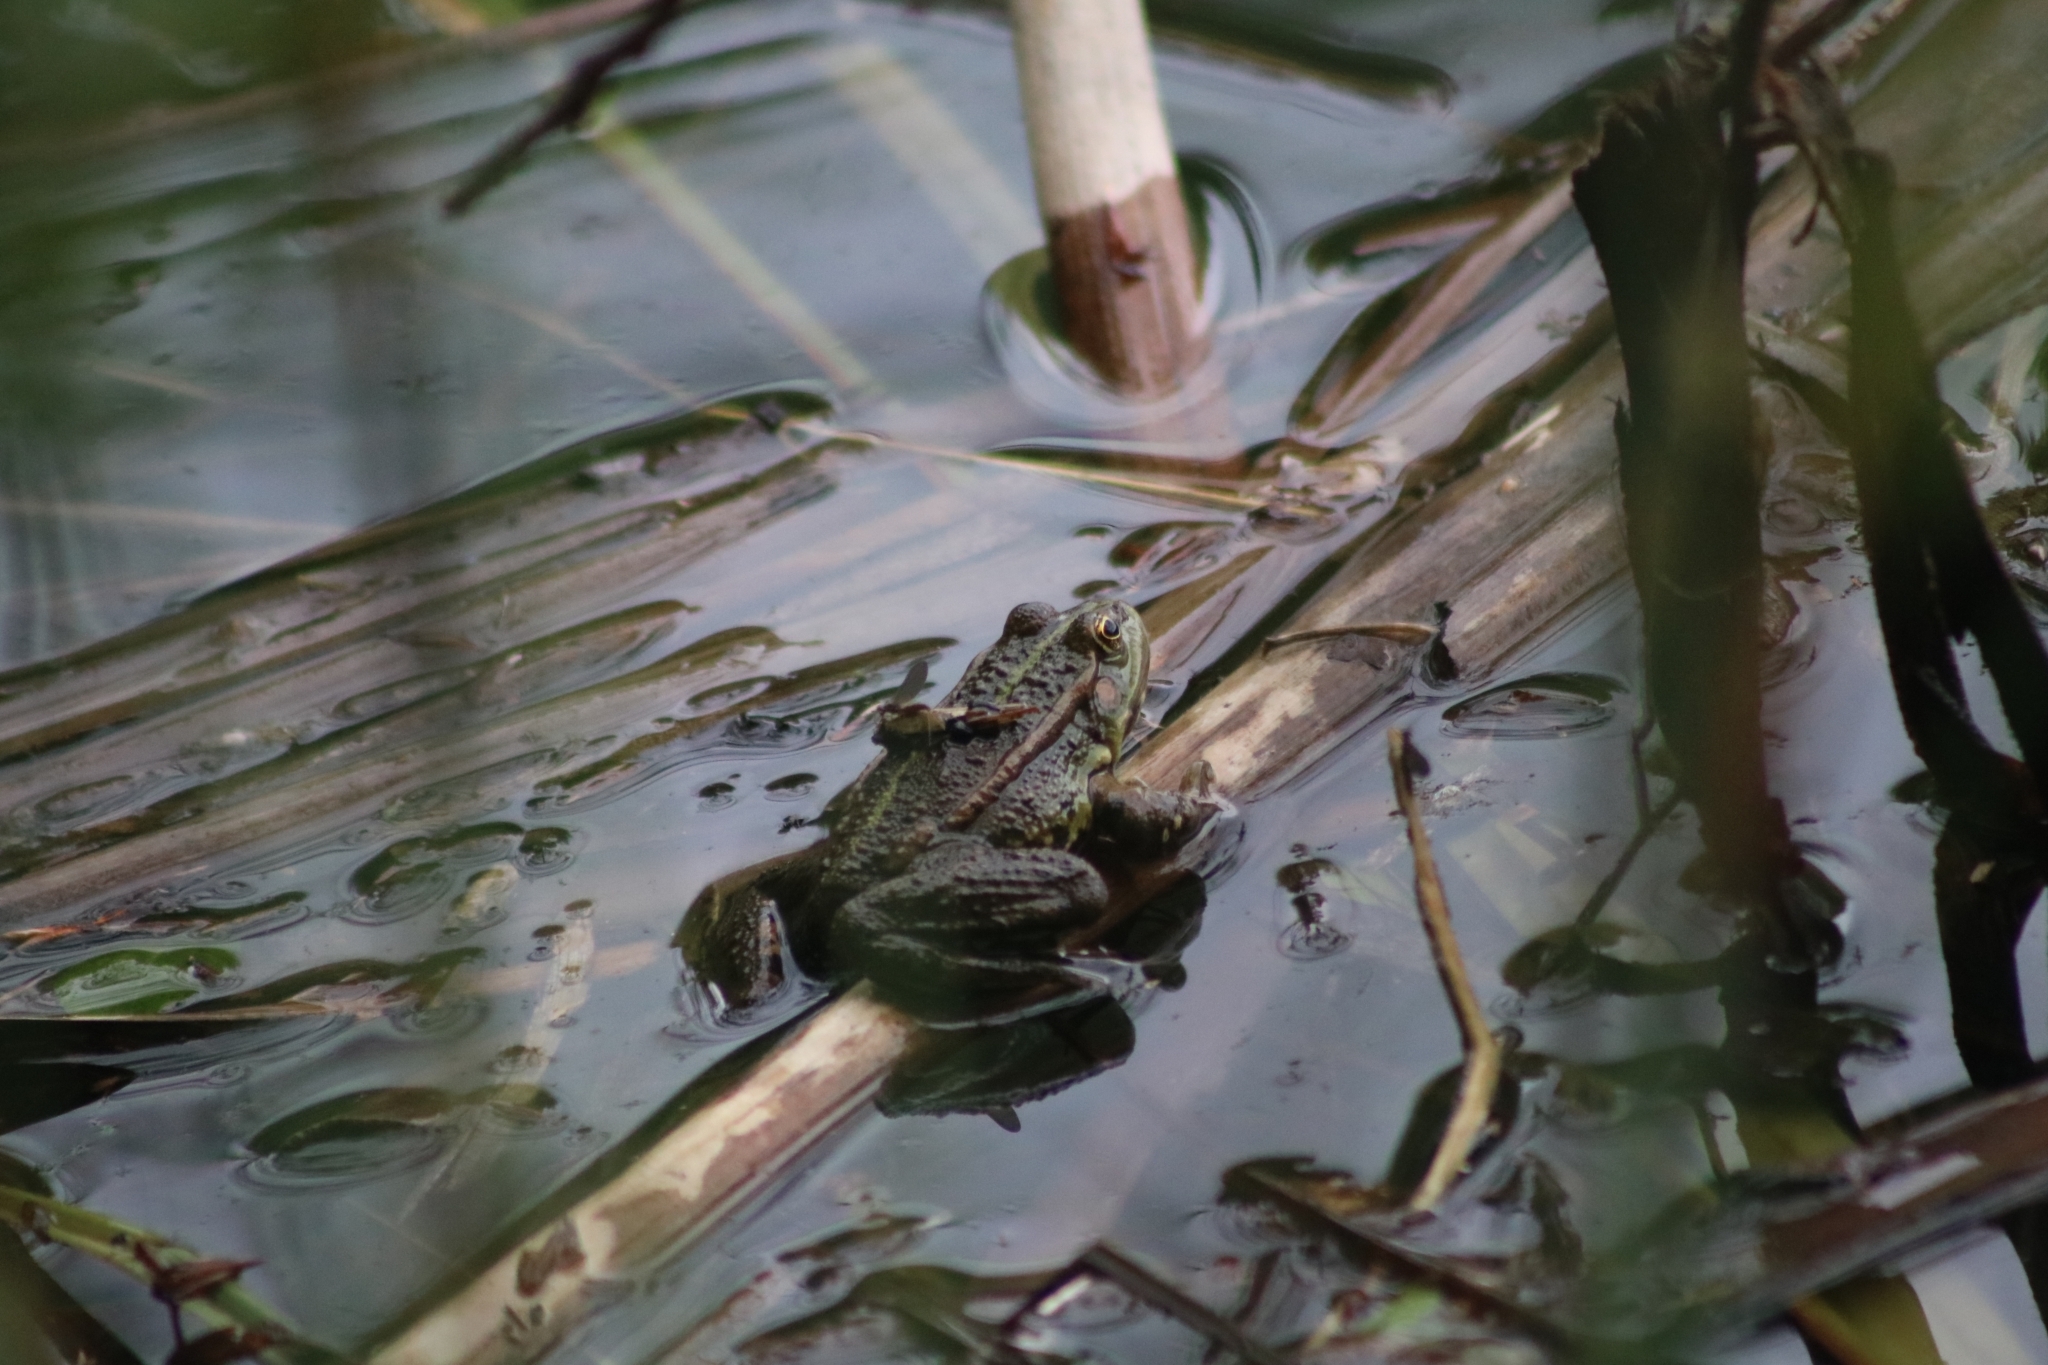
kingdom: Animalia
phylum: Chordata
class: Amphibia
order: Anura
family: Ranidae
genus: Pelophylax
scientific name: Pelophylax ridibundus
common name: Marsh frog
